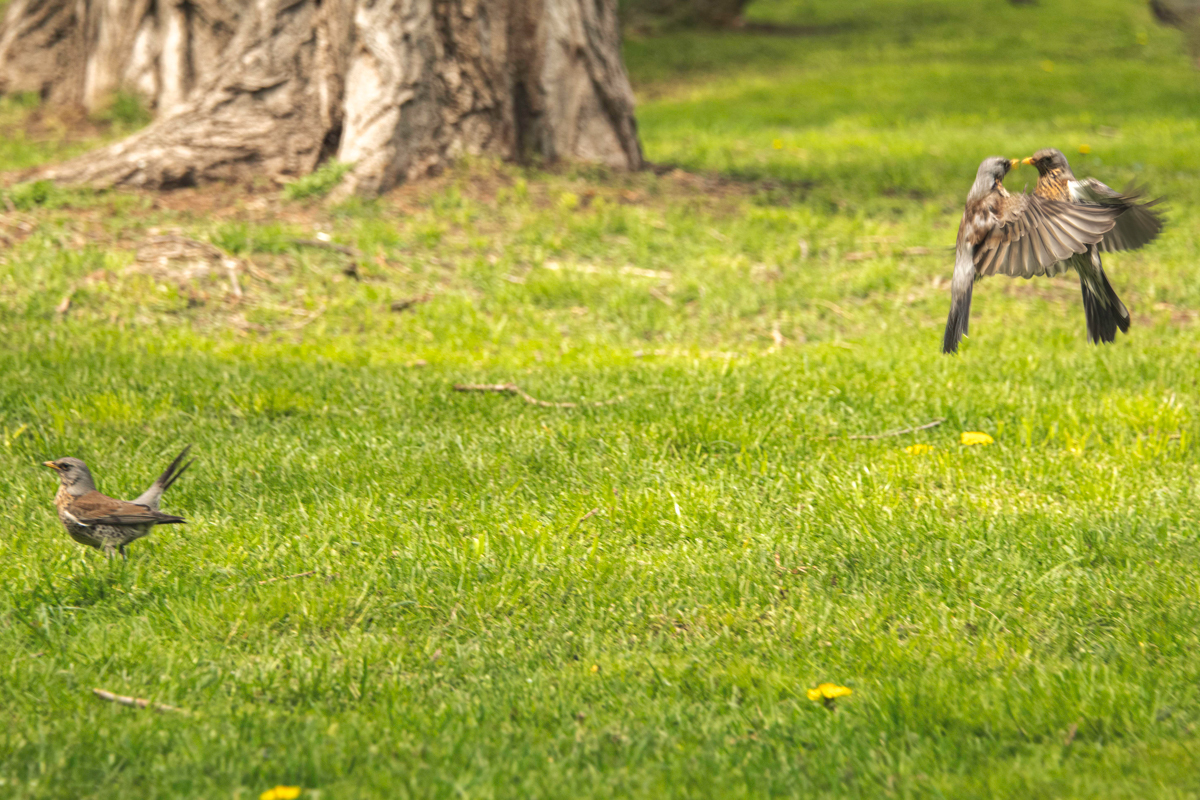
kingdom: Animalia
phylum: Chordata
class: Aves
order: Passeriformes
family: Turdidae
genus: Turdus
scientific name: Turdus pilaris
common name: Fieldfare
